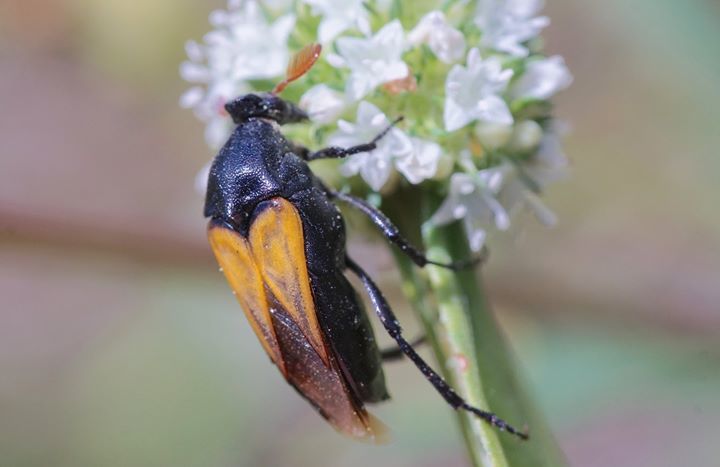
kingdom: Animalia
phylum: Arthropoda
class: Insecta
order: Coleoptera
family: Ripiphoridae
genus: Macrosiagon
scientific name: Macrosiagon flavipennis
